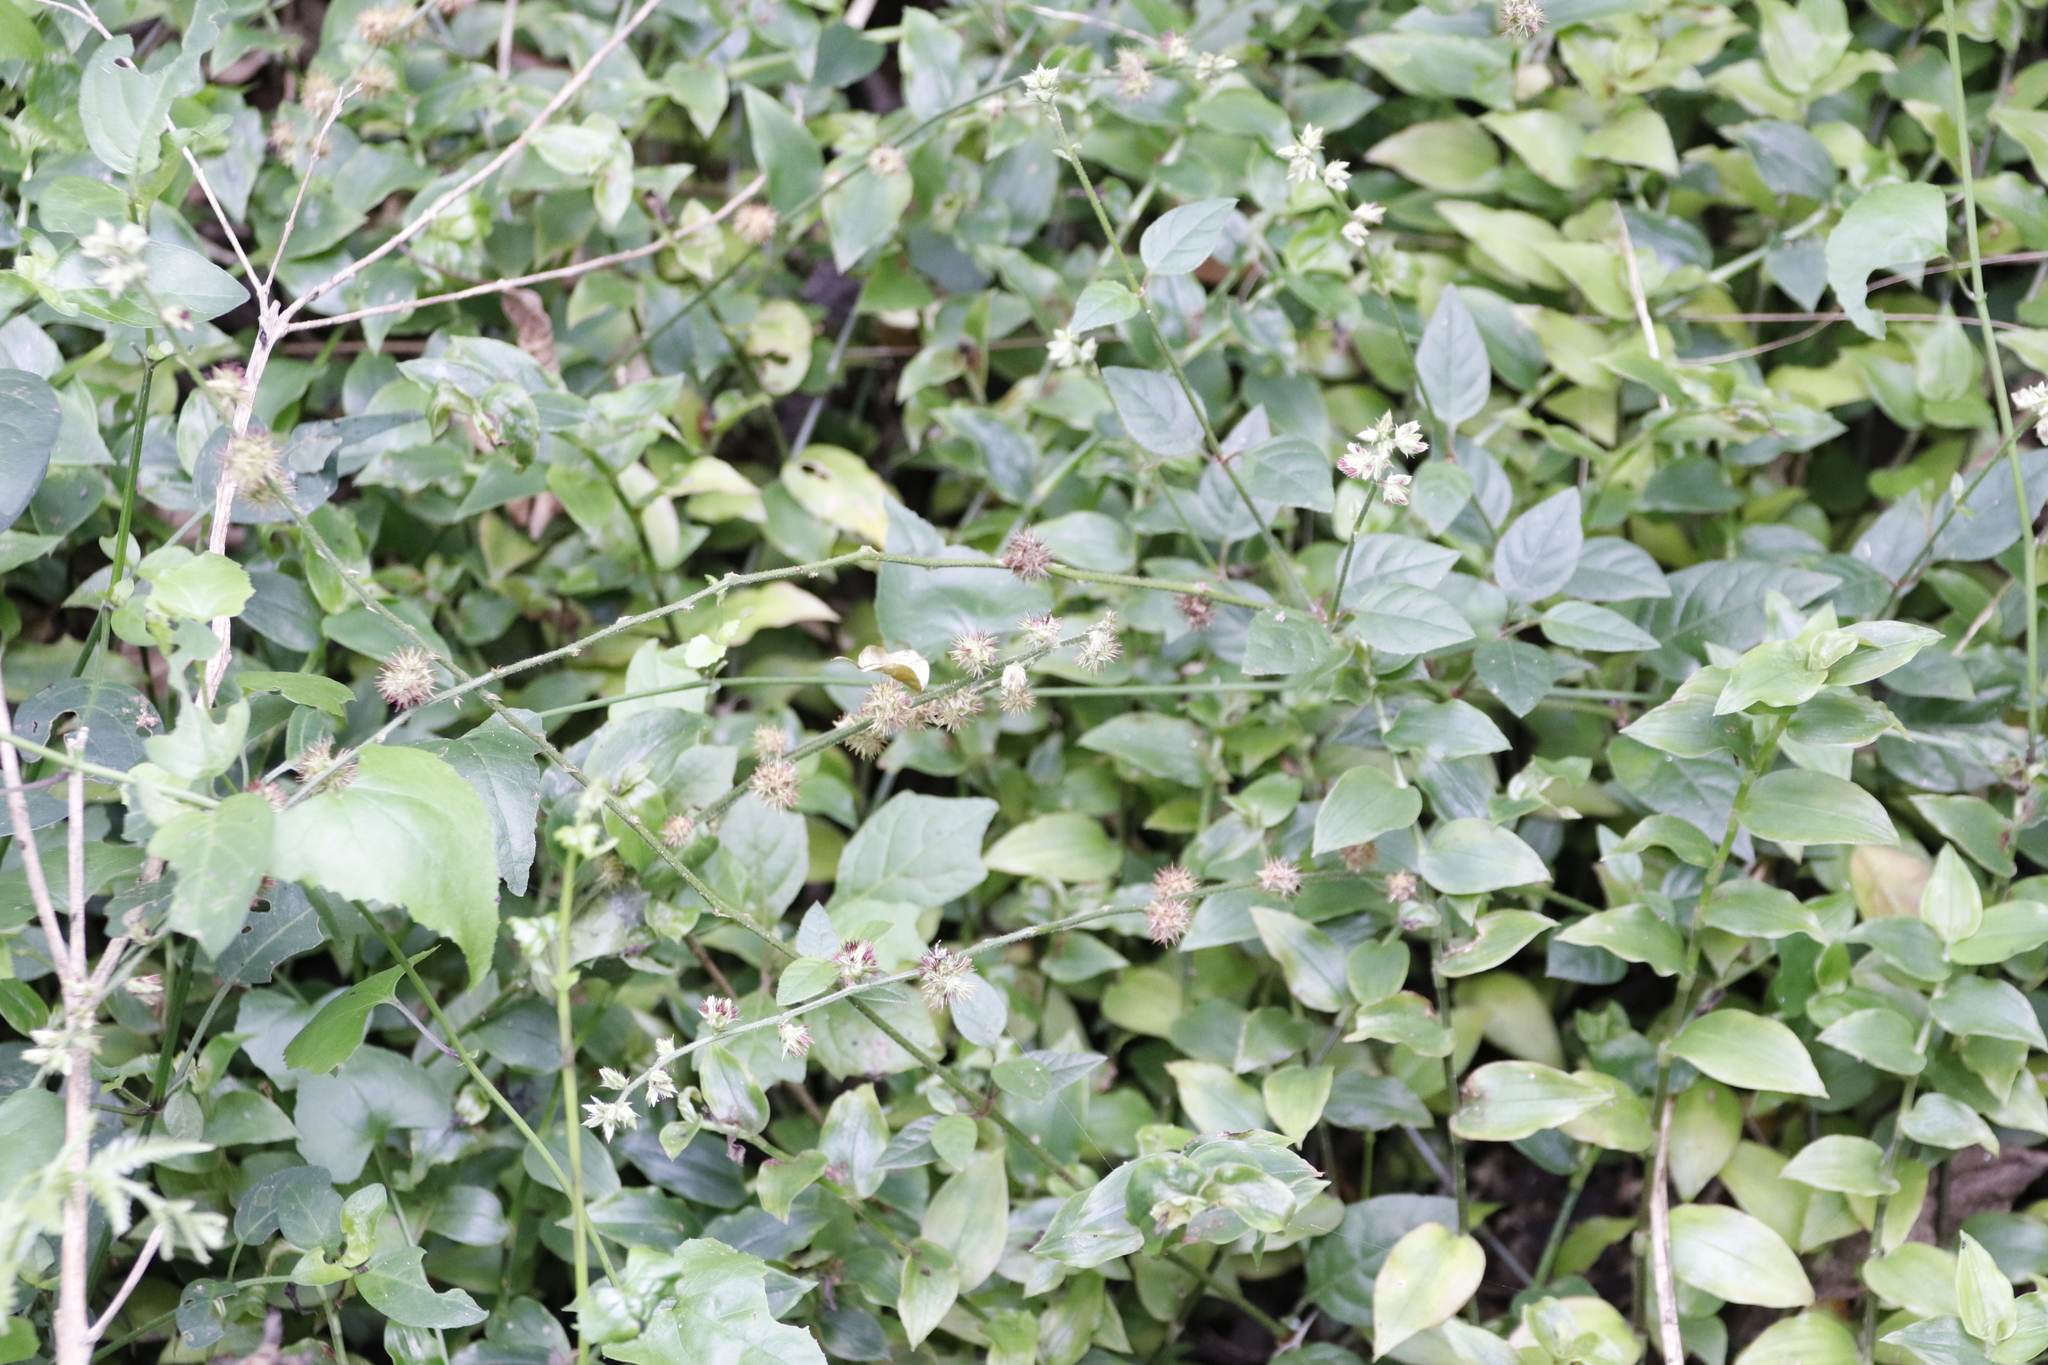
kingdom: Plantae
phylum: Tracheophyta
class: Magnoliopsida
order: Caryophyllales
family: Amaranthaceae
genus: Pupalia
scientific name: Pupalia lappacea
